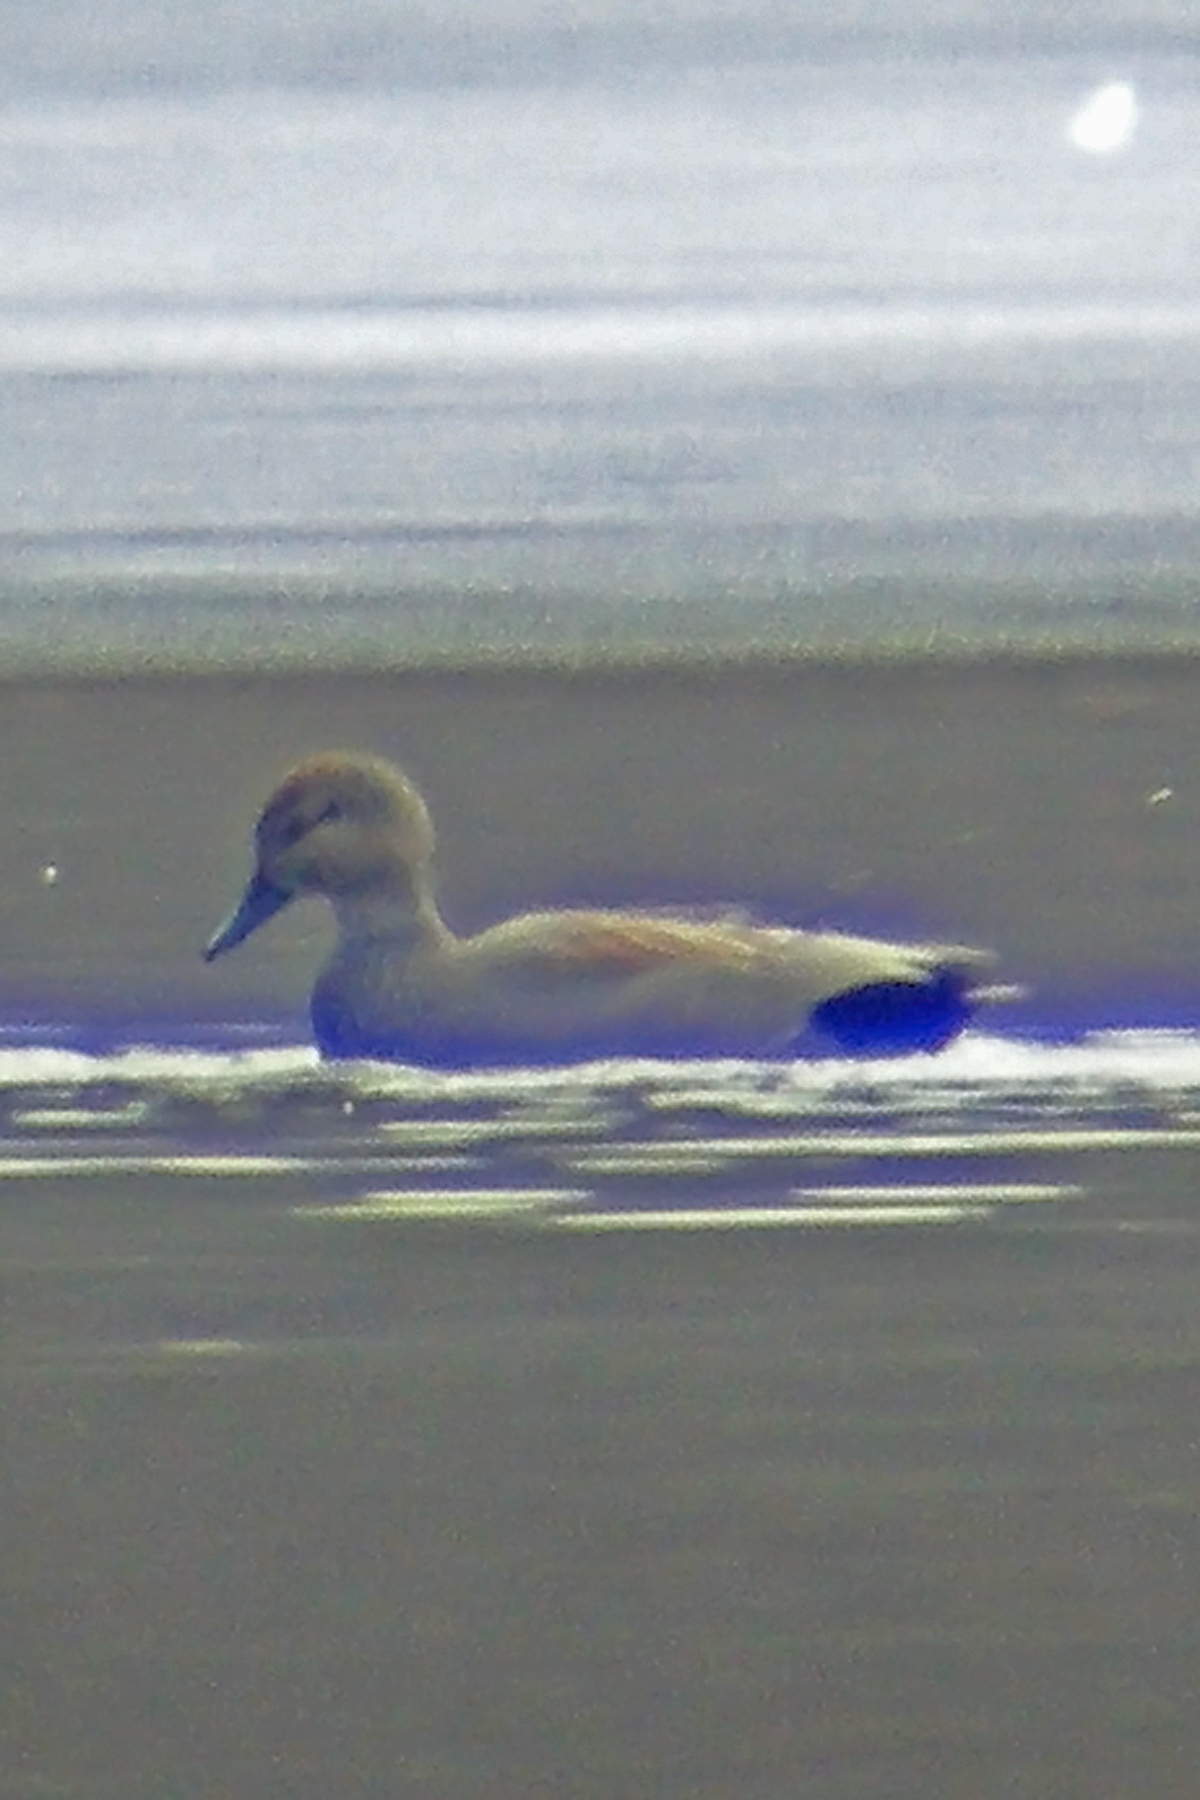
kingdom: Animalia
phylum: Chordata
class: Aves
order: Anseriformes
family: Anatidae
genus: Mareca
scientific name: Mareca strepera
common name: Gadwall
